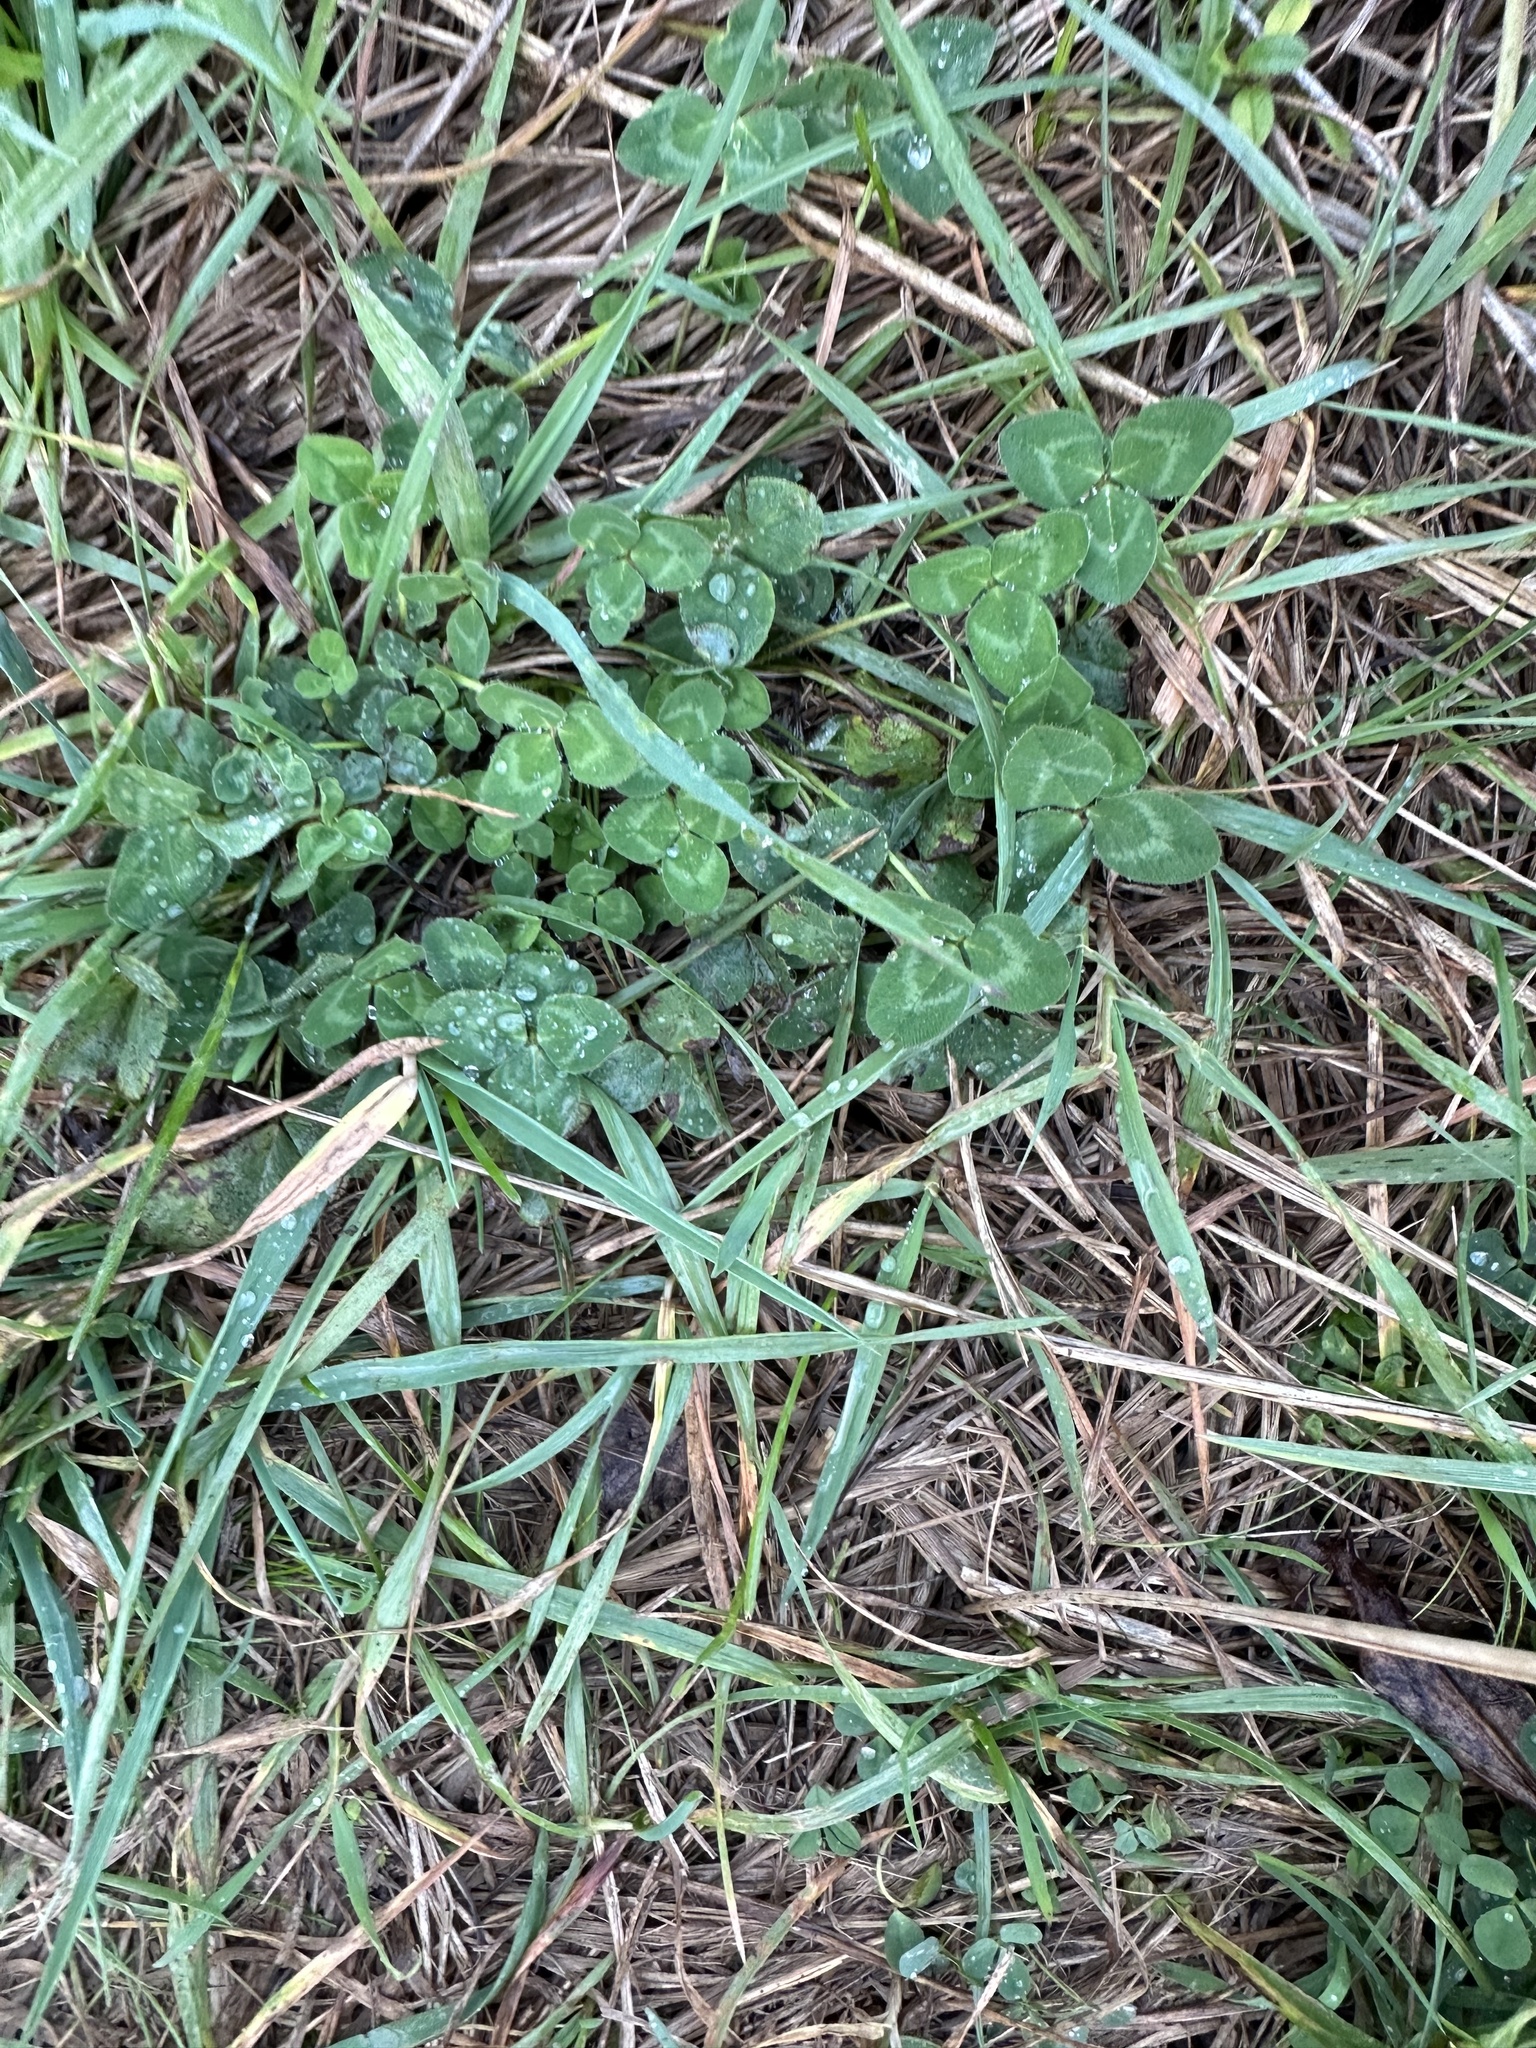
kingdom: Plantae
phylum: Tracheophyta
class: Magnoliopsida
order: Fabales
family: Fabaceae
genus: Trifolium
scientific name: Trifolium pratense
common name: Red clover
